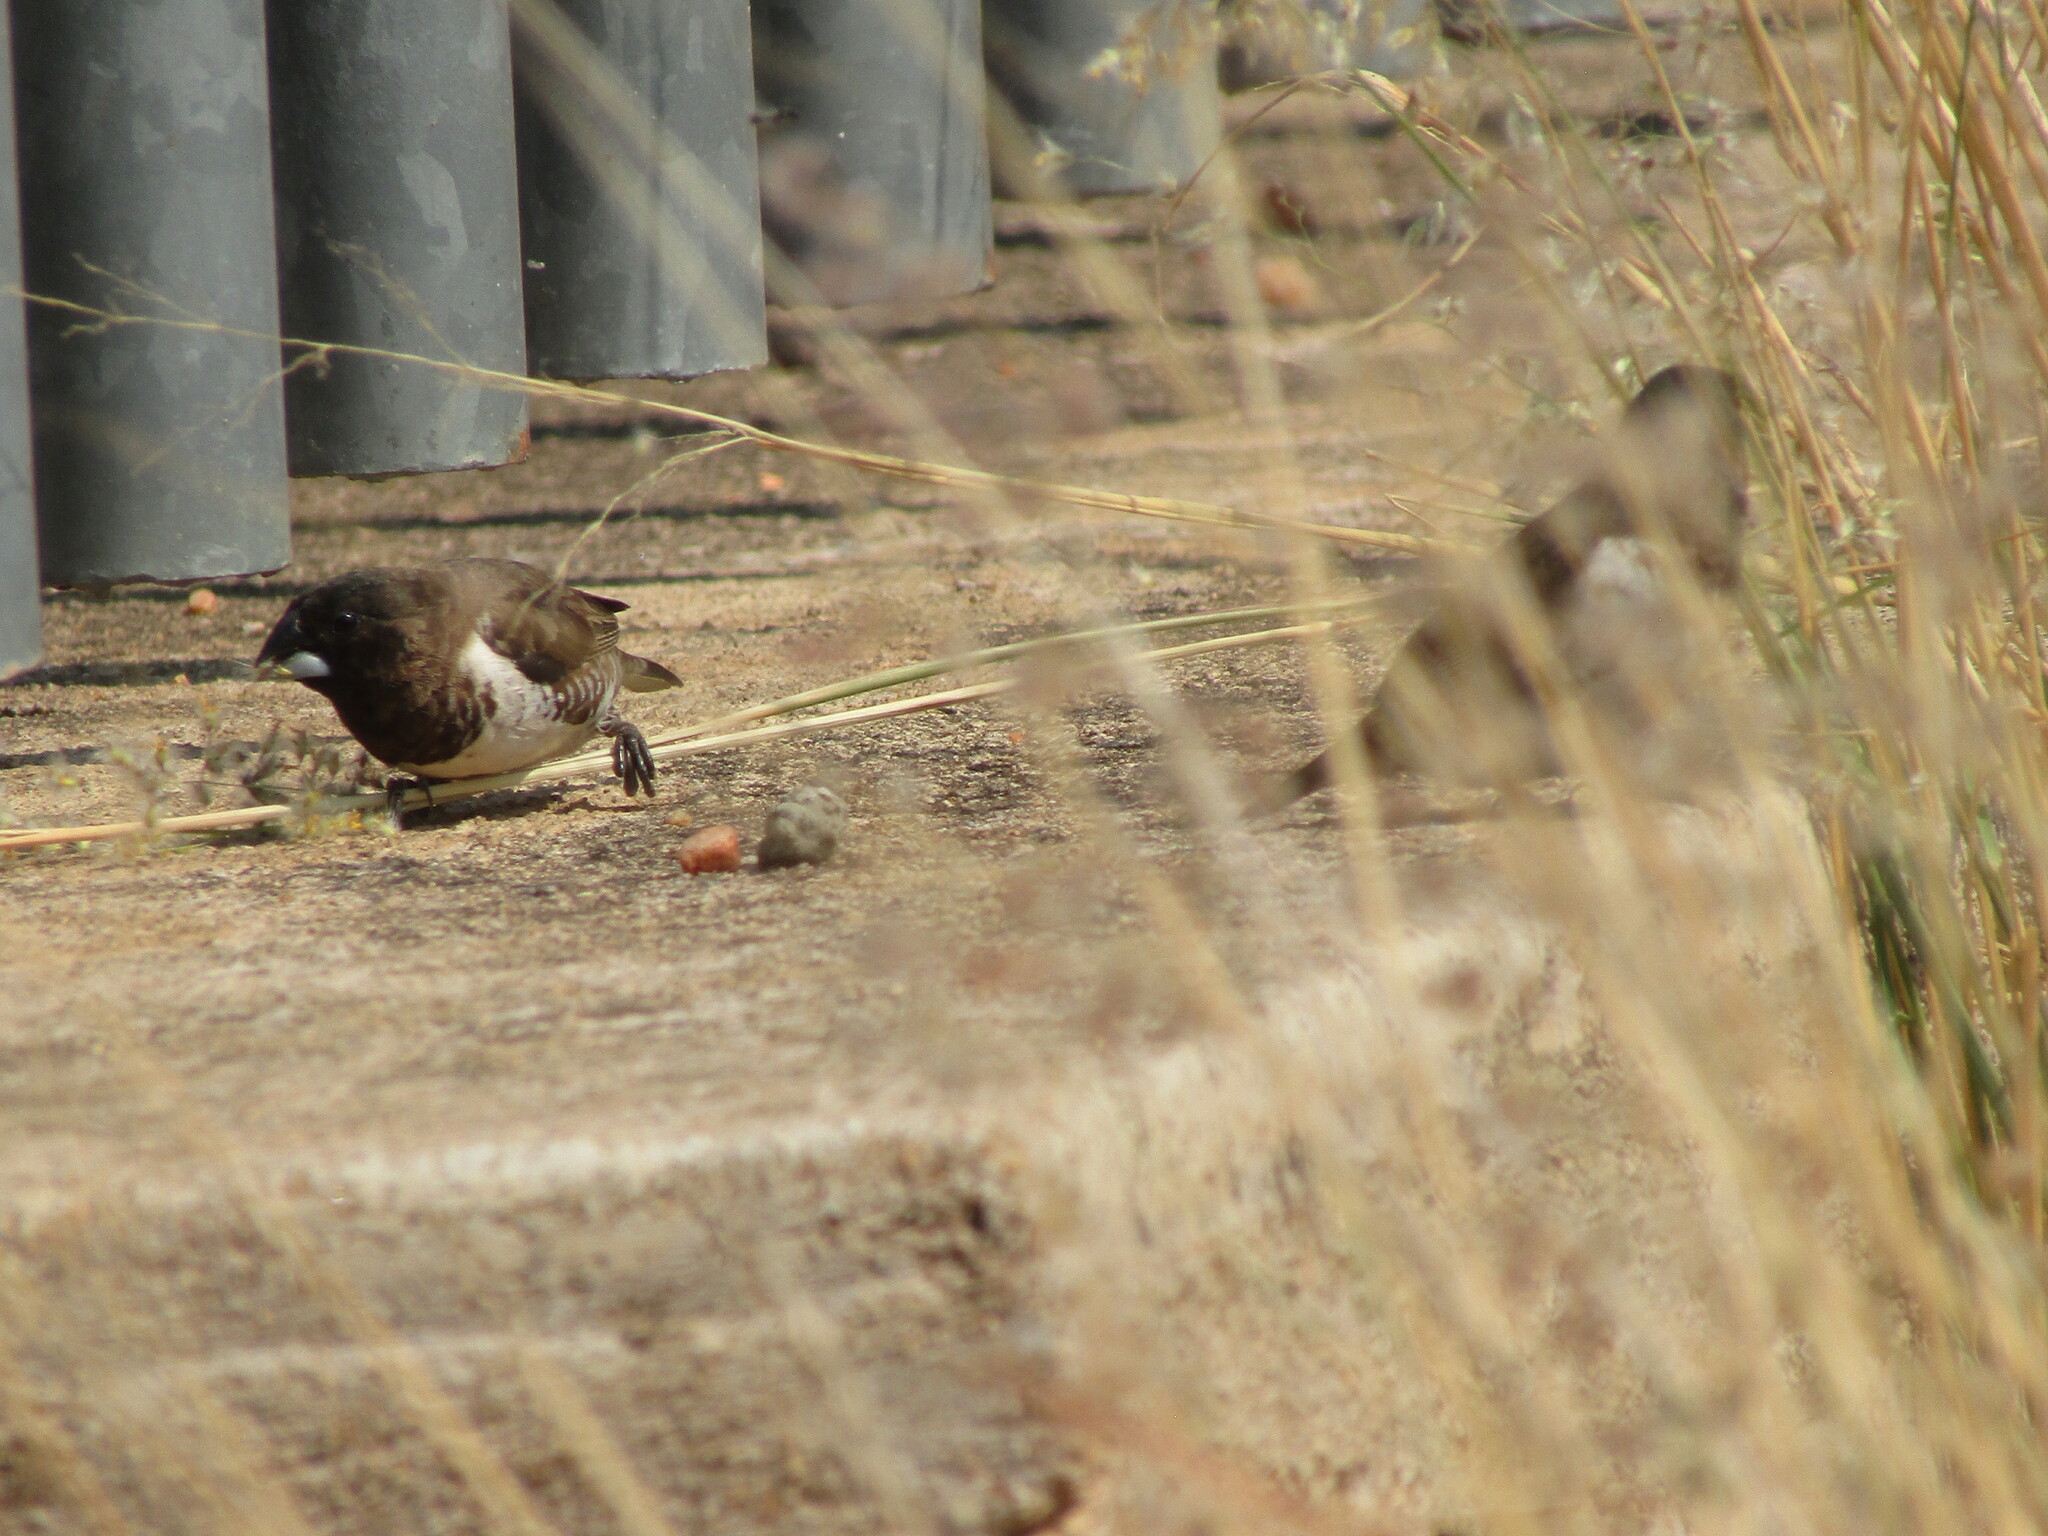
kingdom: Animalia
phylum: Chordata
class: Aves
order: Passeriformes
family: Estrildidae
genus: Lonchura
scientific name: Lonchura cucullata
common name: Bronze mannikin
